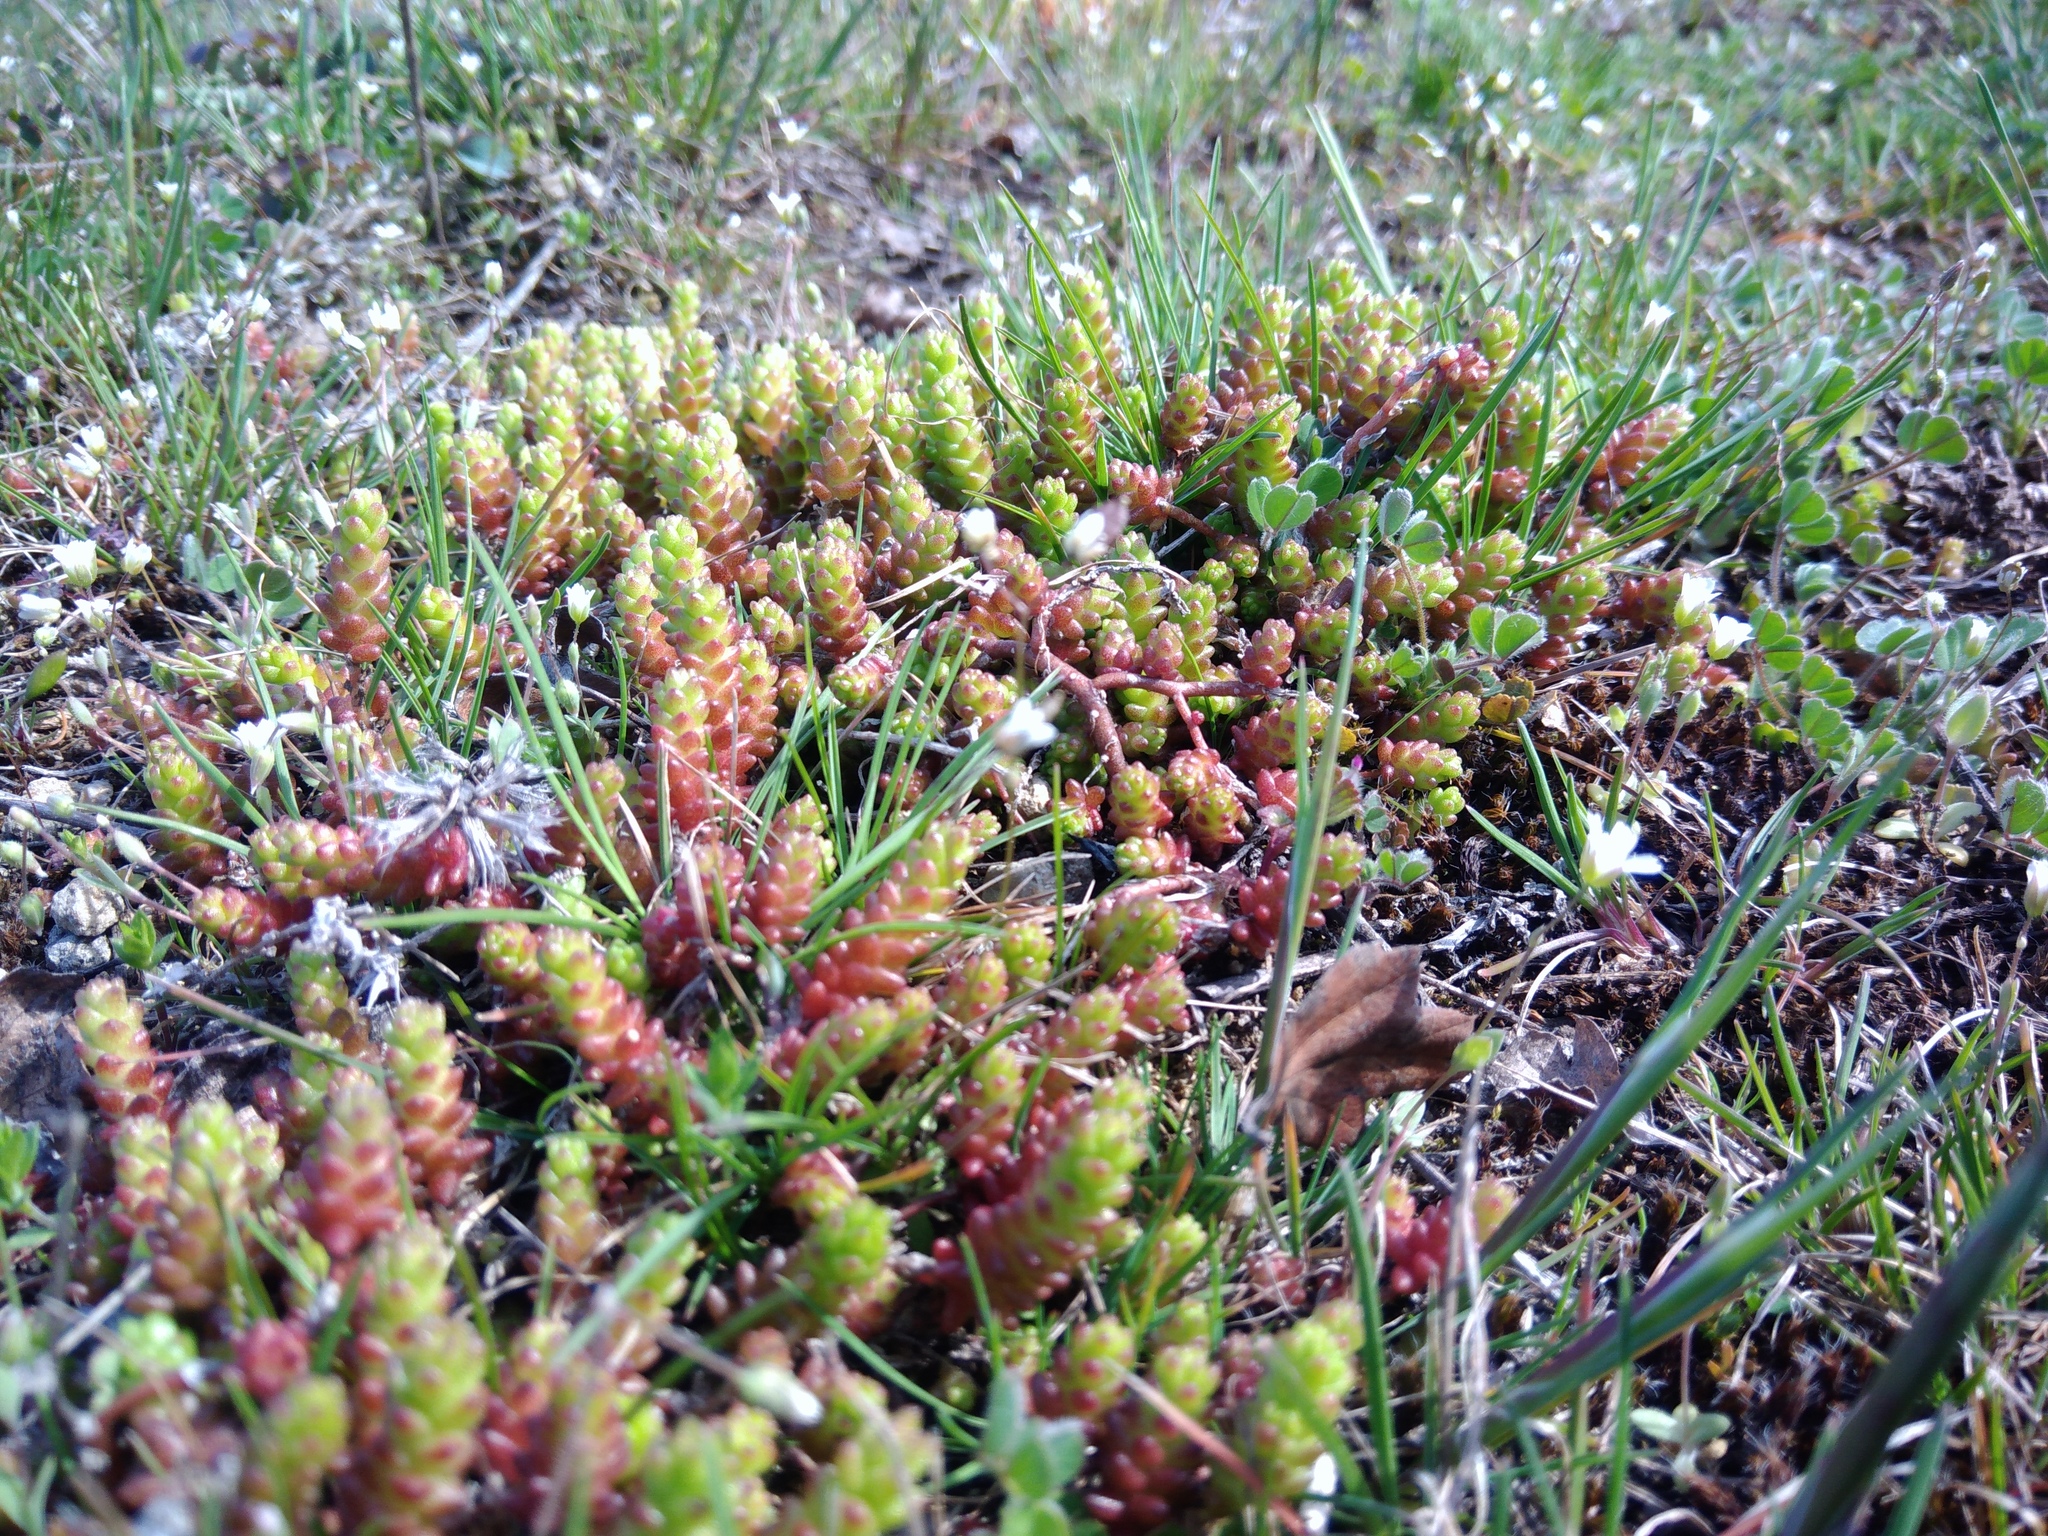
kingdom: Plantae
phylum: Tracheophyta
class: Magnoliopsida
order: Saxifragales
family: Crassulaceae
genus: Sedum
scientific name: Sedum acre
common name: Biting stonecrop
